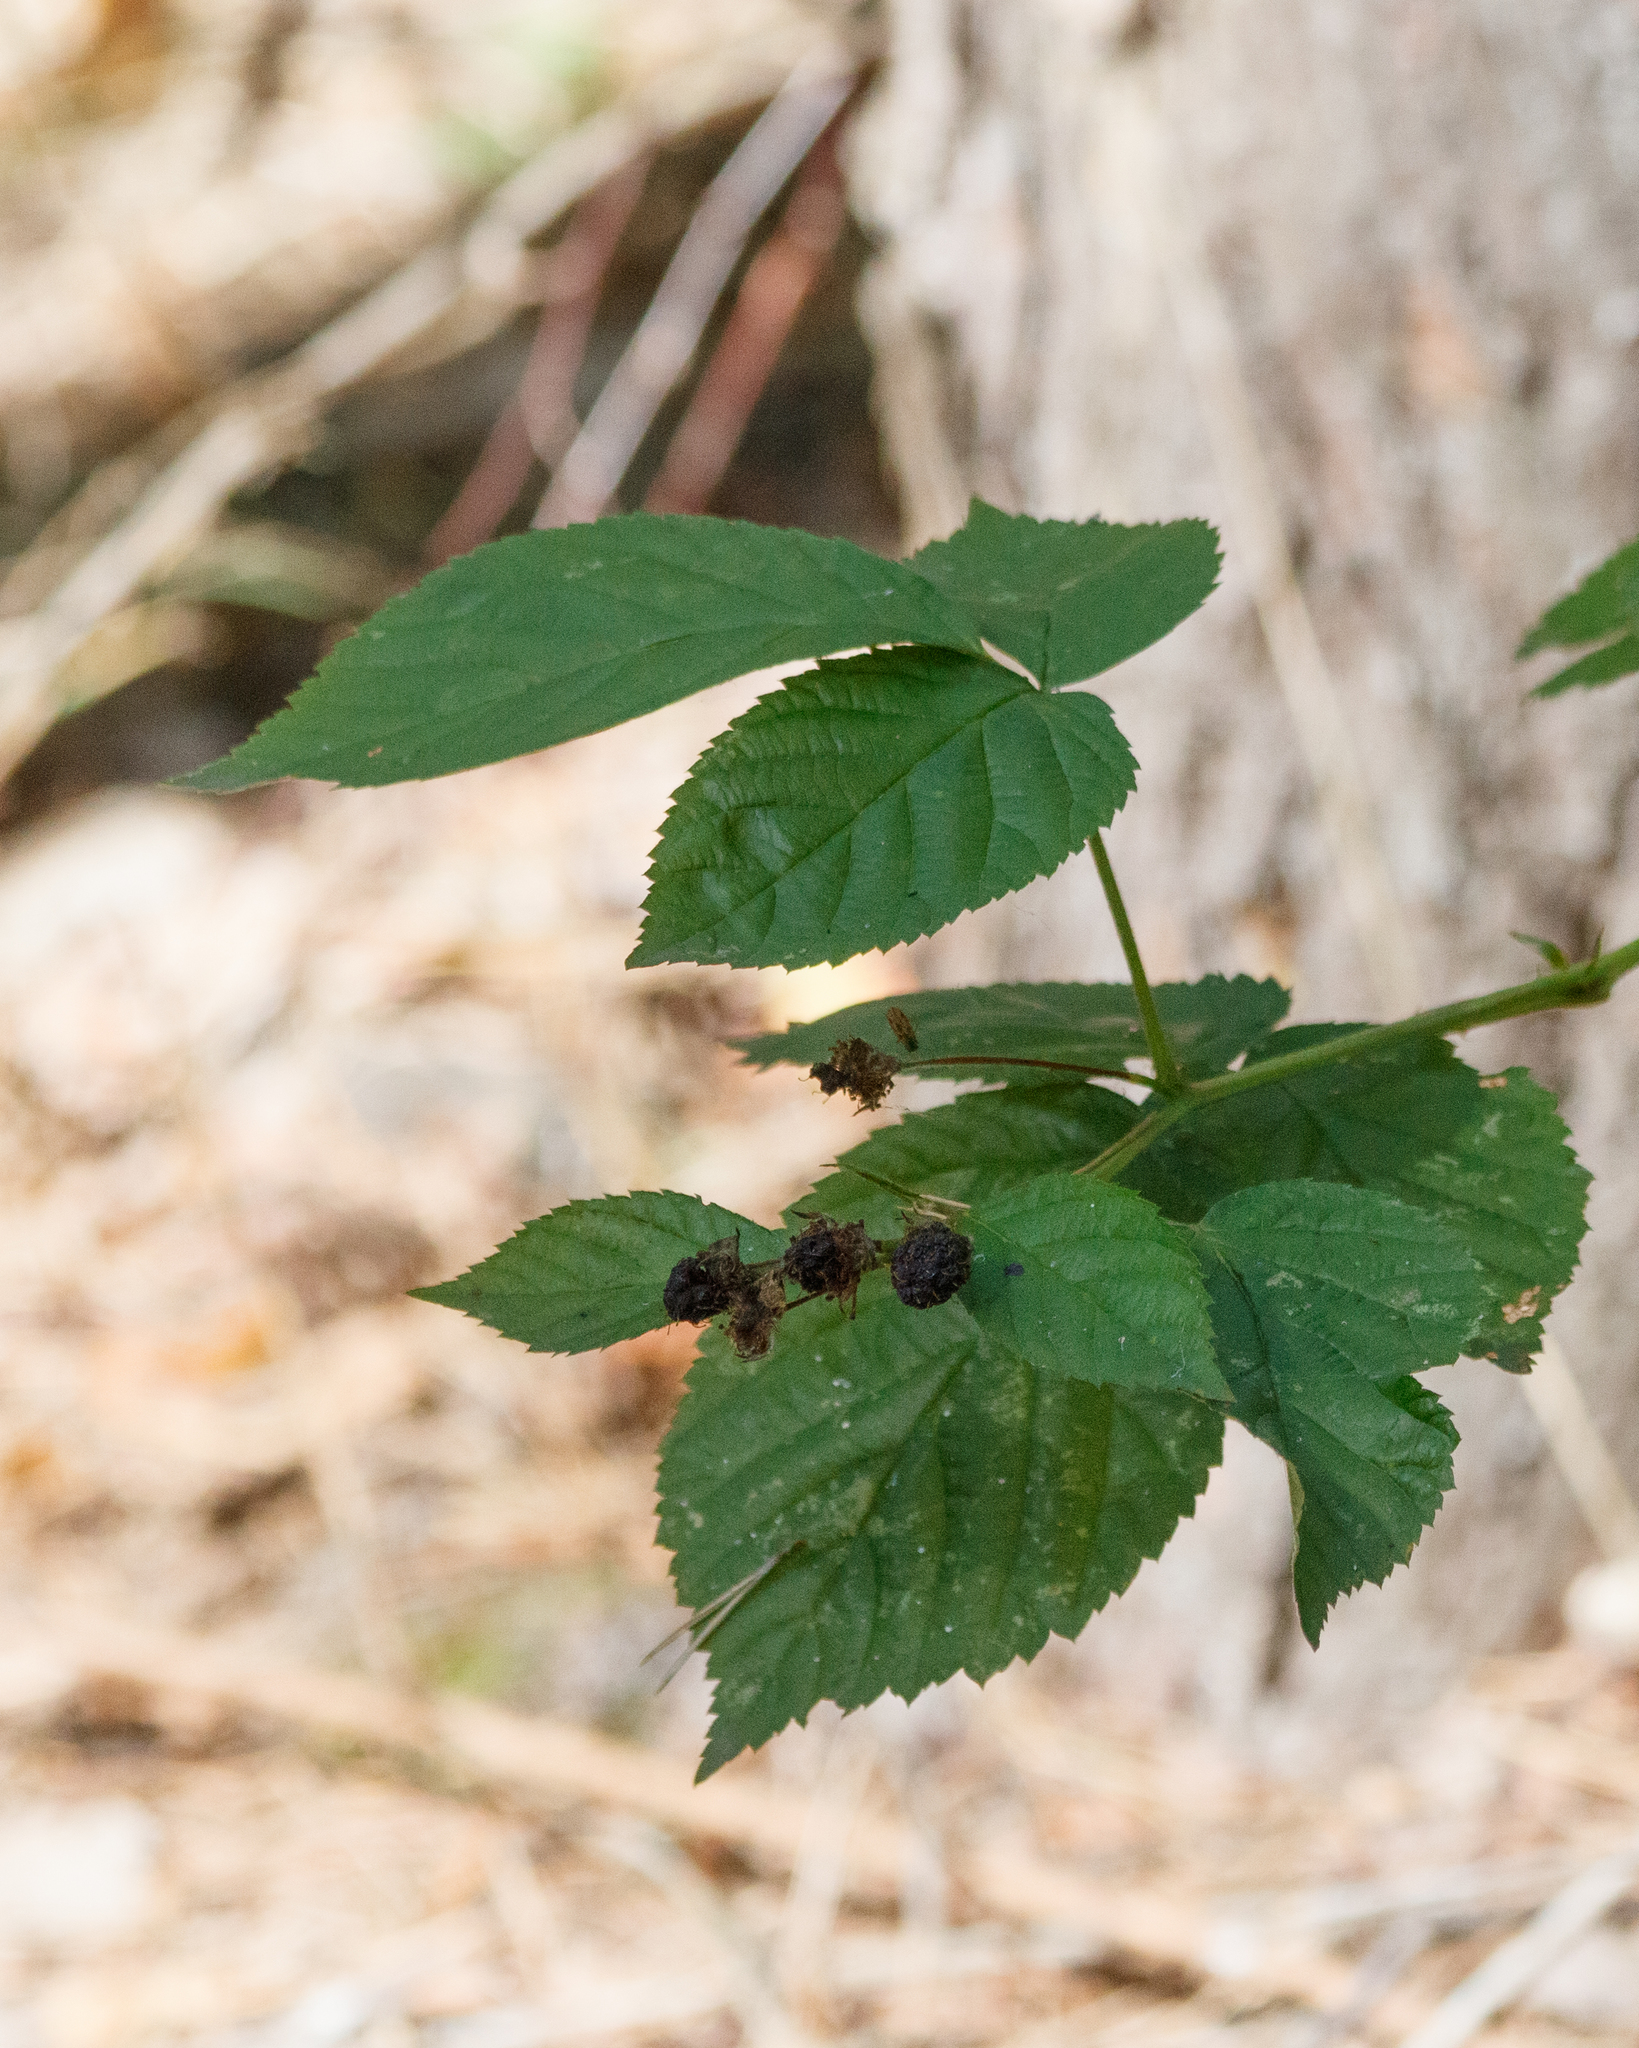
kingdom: Plantae
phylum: Tracheophyta
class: Magnoliopsida
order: Rosales
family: Rosaceae
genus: Rubus
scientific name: Rubus polonicus
